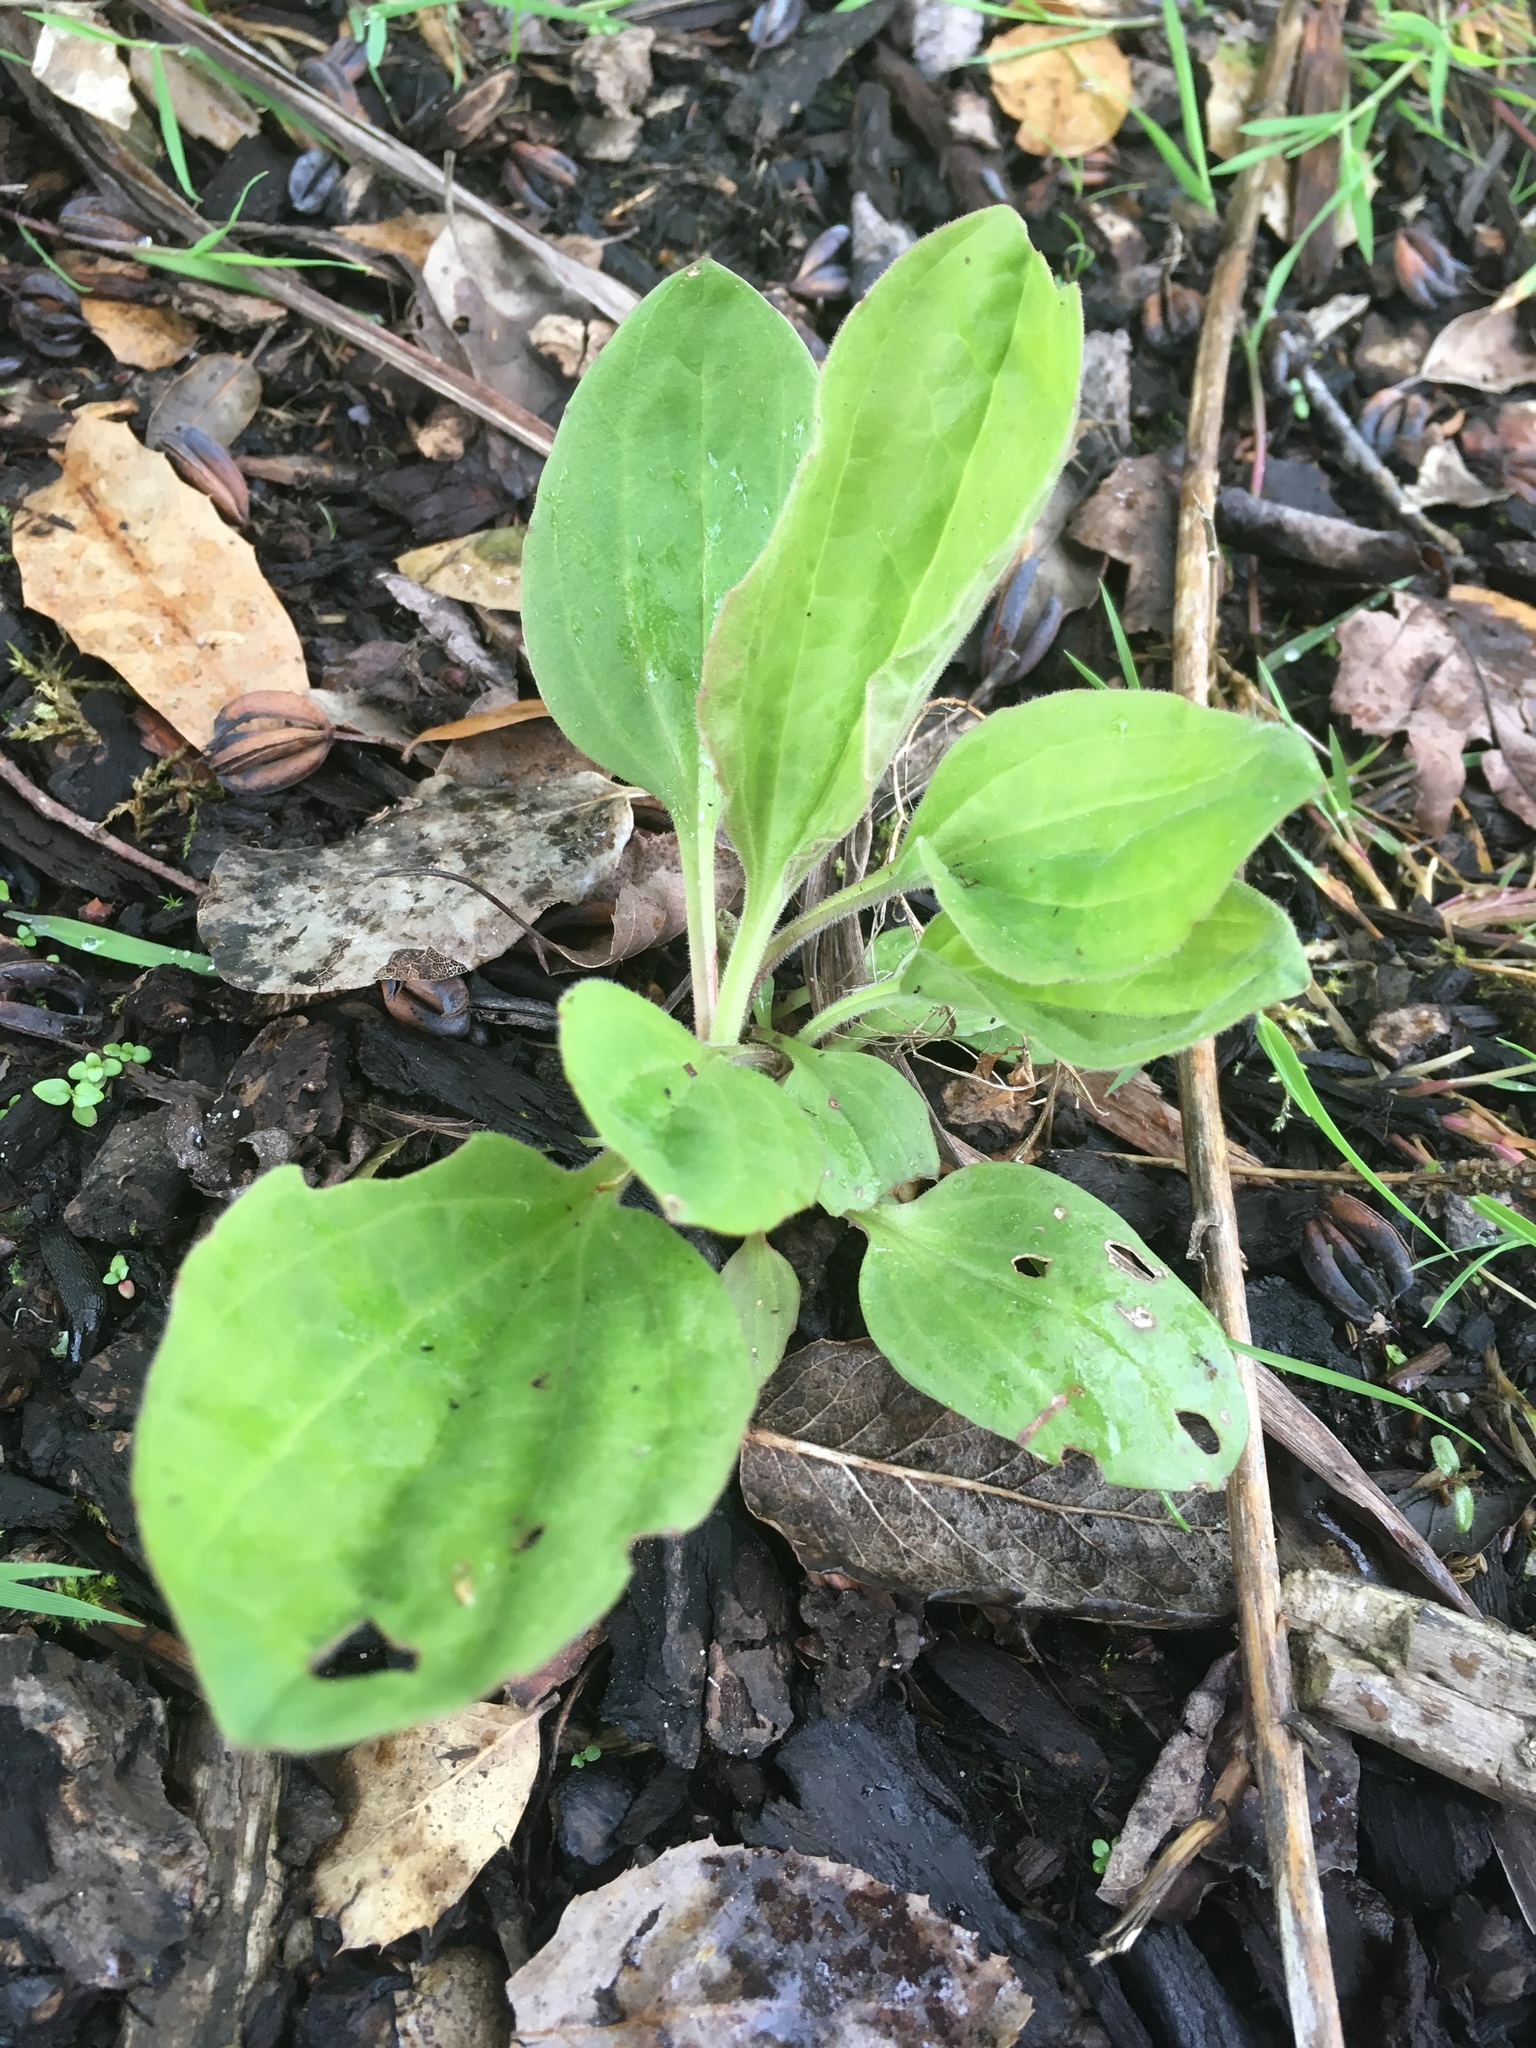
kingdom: Plantae
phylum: Tracheophyta
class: Magnoliopsida
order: Lamiales
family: Plantaginaceae
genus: Plantago
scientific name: Plantago major
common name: Common plantain
